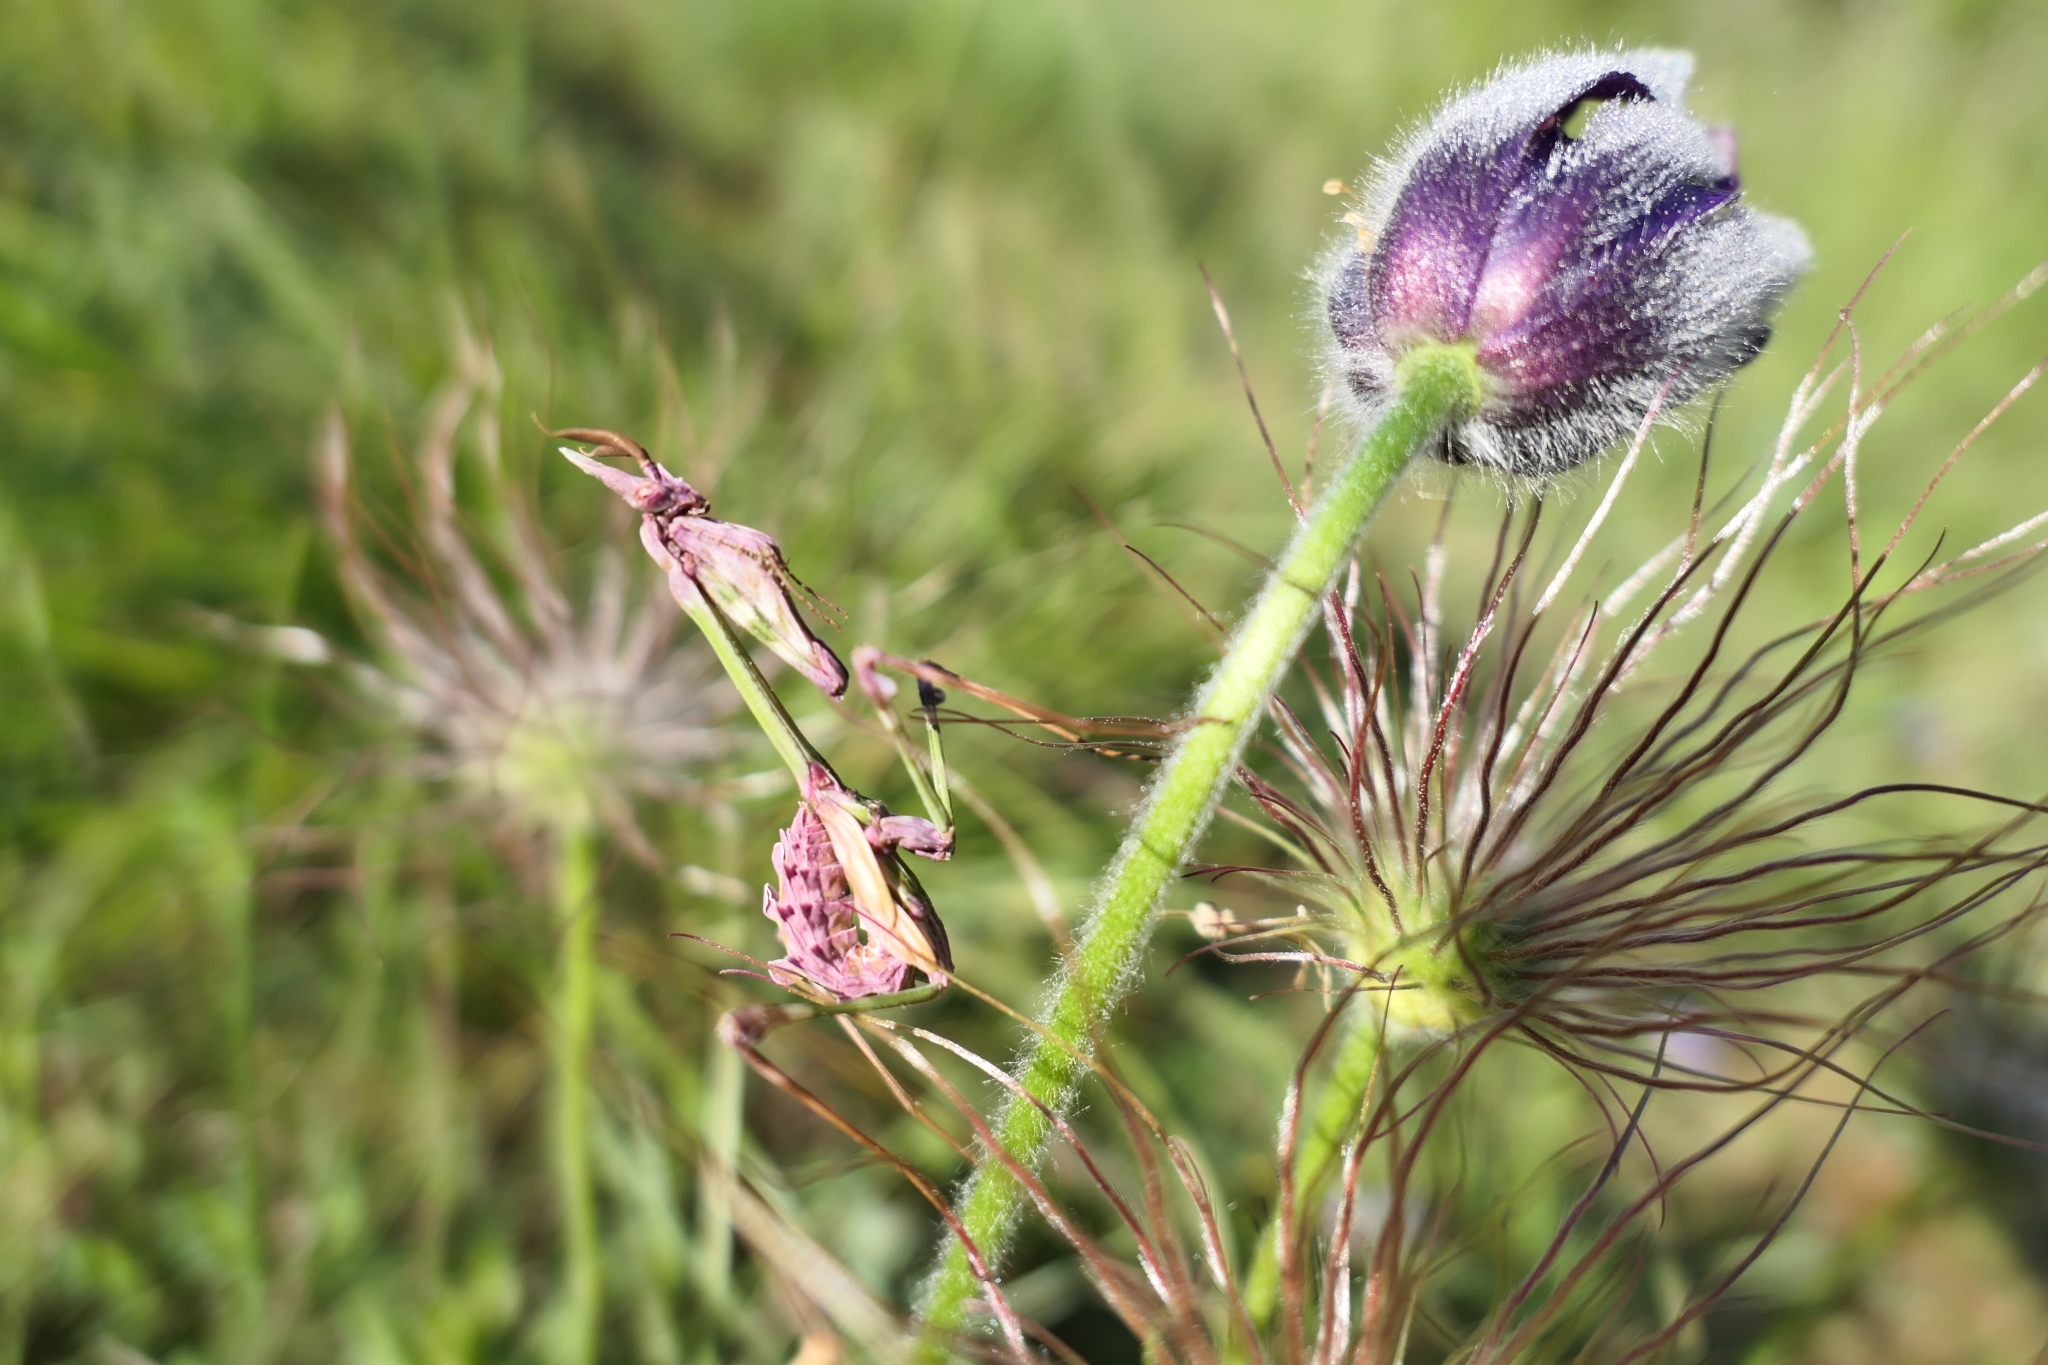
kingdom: Animalia
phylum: Arthropoda
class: Insecta
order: Mantodea
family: Empusidae
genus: Empusa
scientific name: Empusa pennata
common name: Conehead mantis
